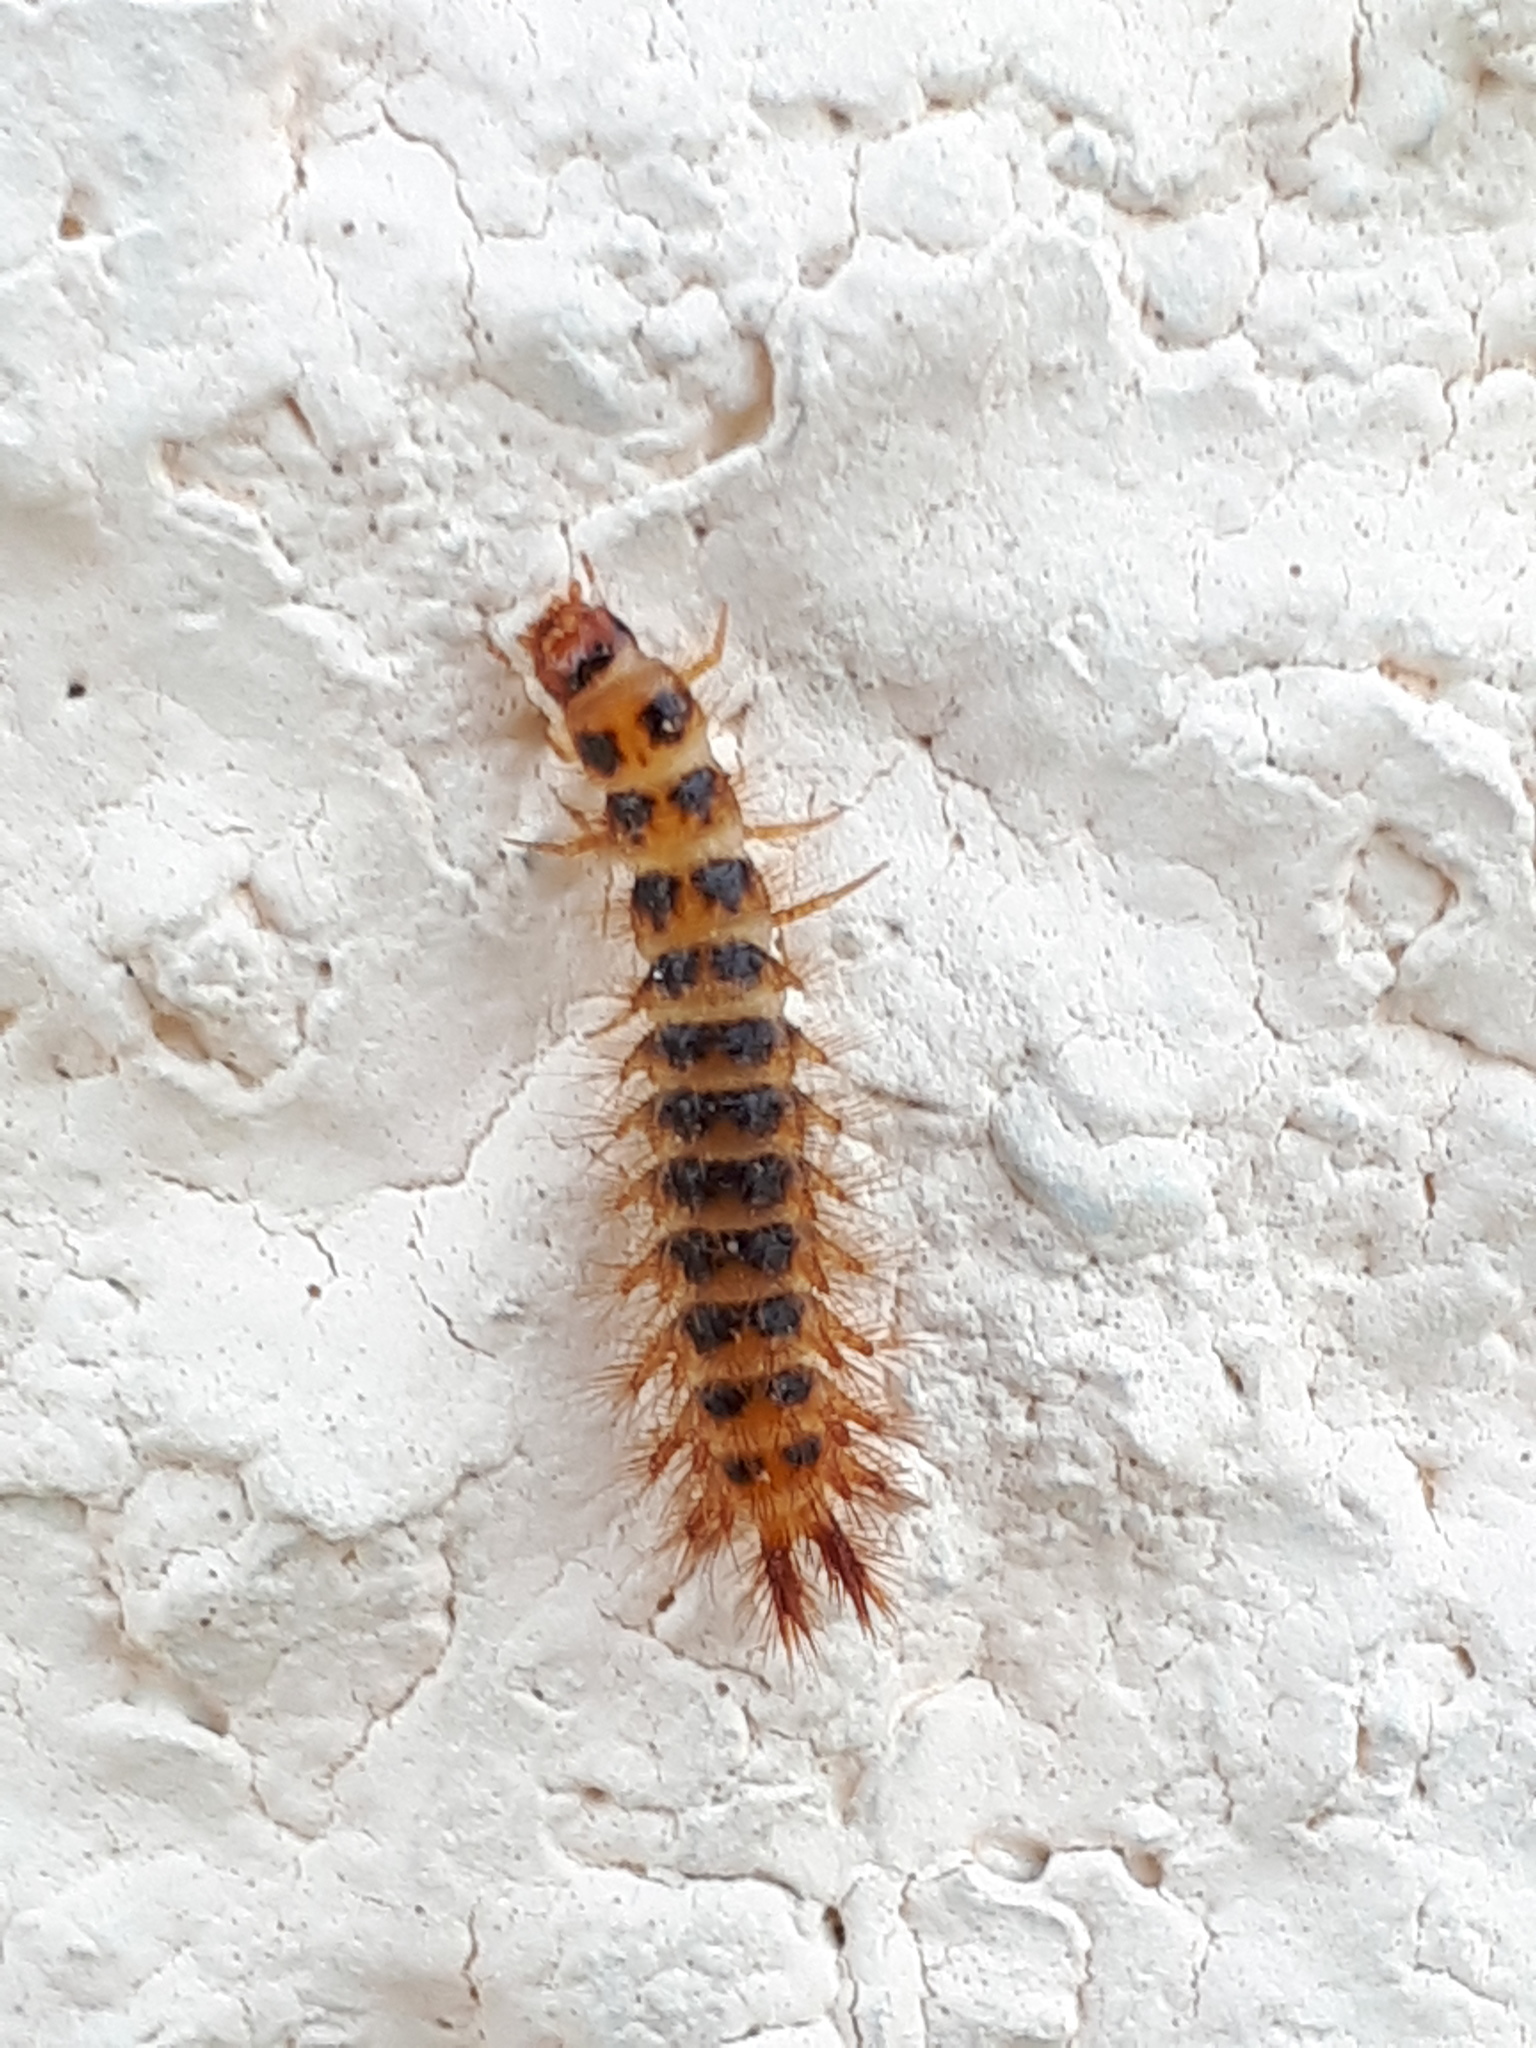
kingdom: Animalia
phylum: Arthropoda
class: Insecta
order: Coleoptera
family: Drilidae
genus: Drilus
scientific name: Drilus concolor
